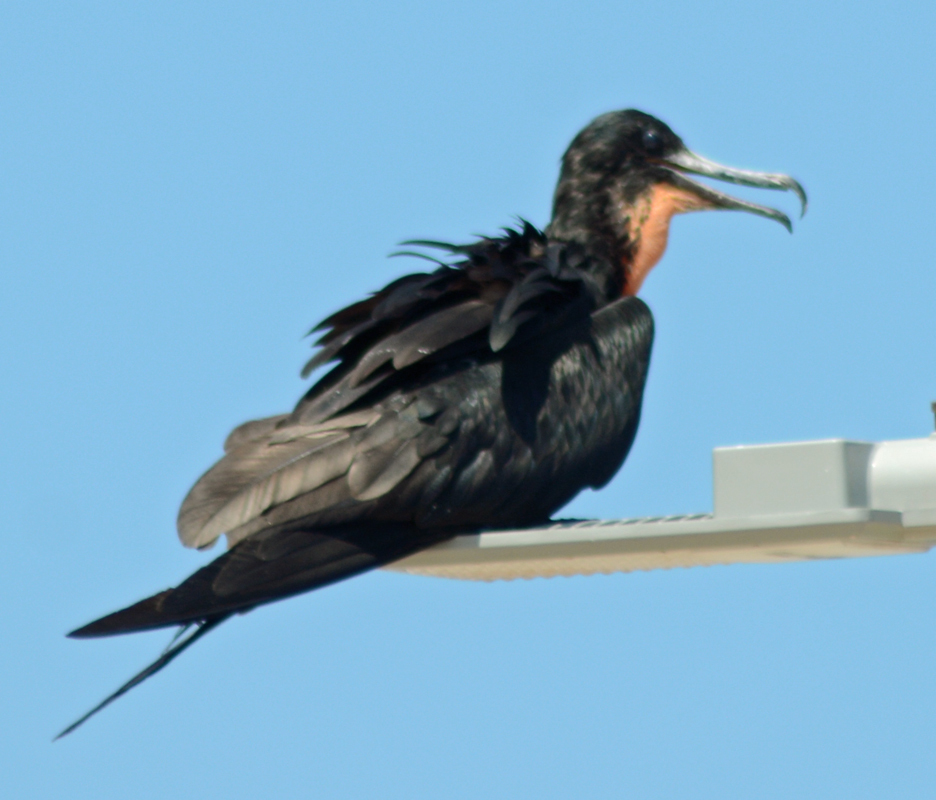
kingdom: Animalia
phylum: Chordata
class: Aves
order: Suliformes
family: Fregatidae
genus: Fregata
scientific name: Fregata magnificens
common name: Magnificent frigatebird
